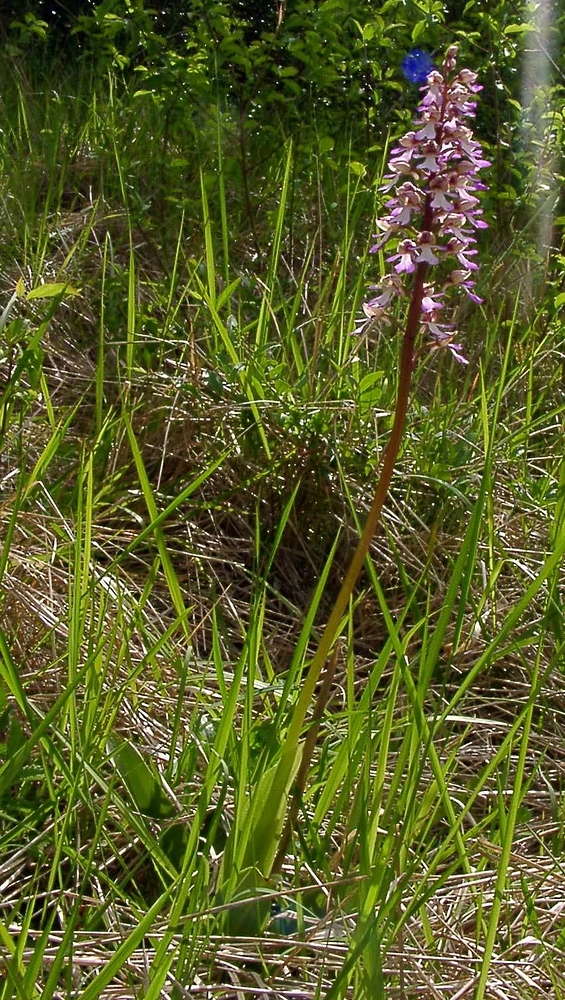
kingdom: Plantae
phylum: Tracheophyta
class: Liliopsida
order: Asparagales
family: Orchidaceae
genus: Orchis
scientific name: Orchis purpurea
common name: Lady orchid
